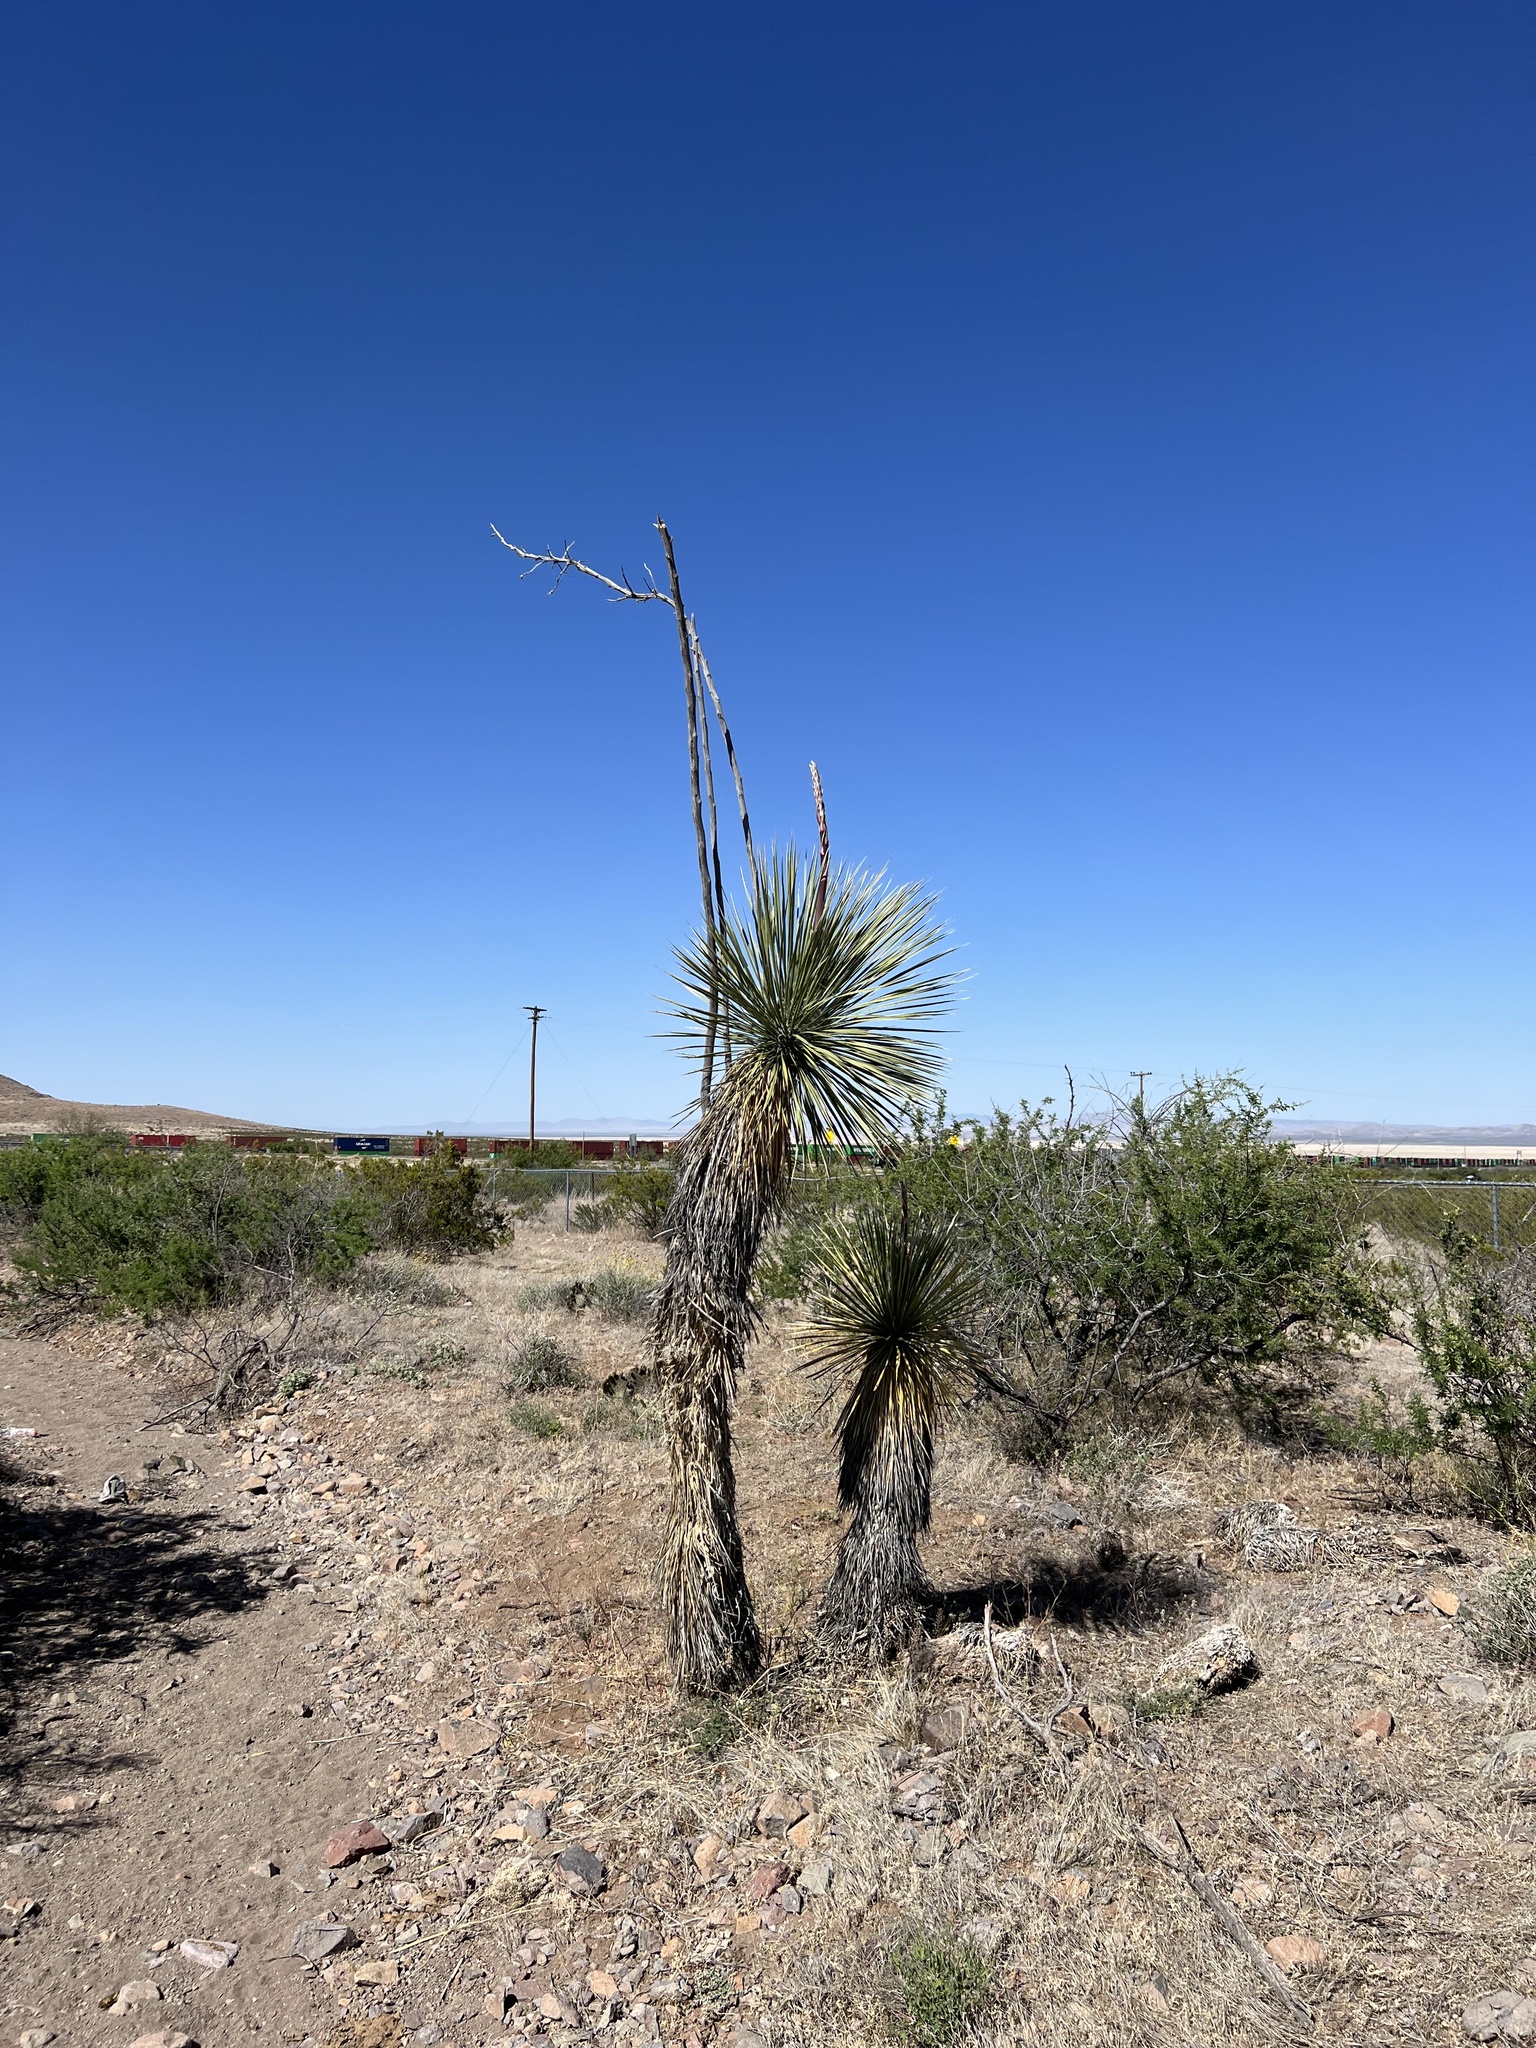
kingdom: Plantae
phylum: Tracheophyta
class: Liliopsida
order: Asparagales
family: Asparagaceae
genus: Yucca
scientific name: Yucca elata
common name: Palmella
